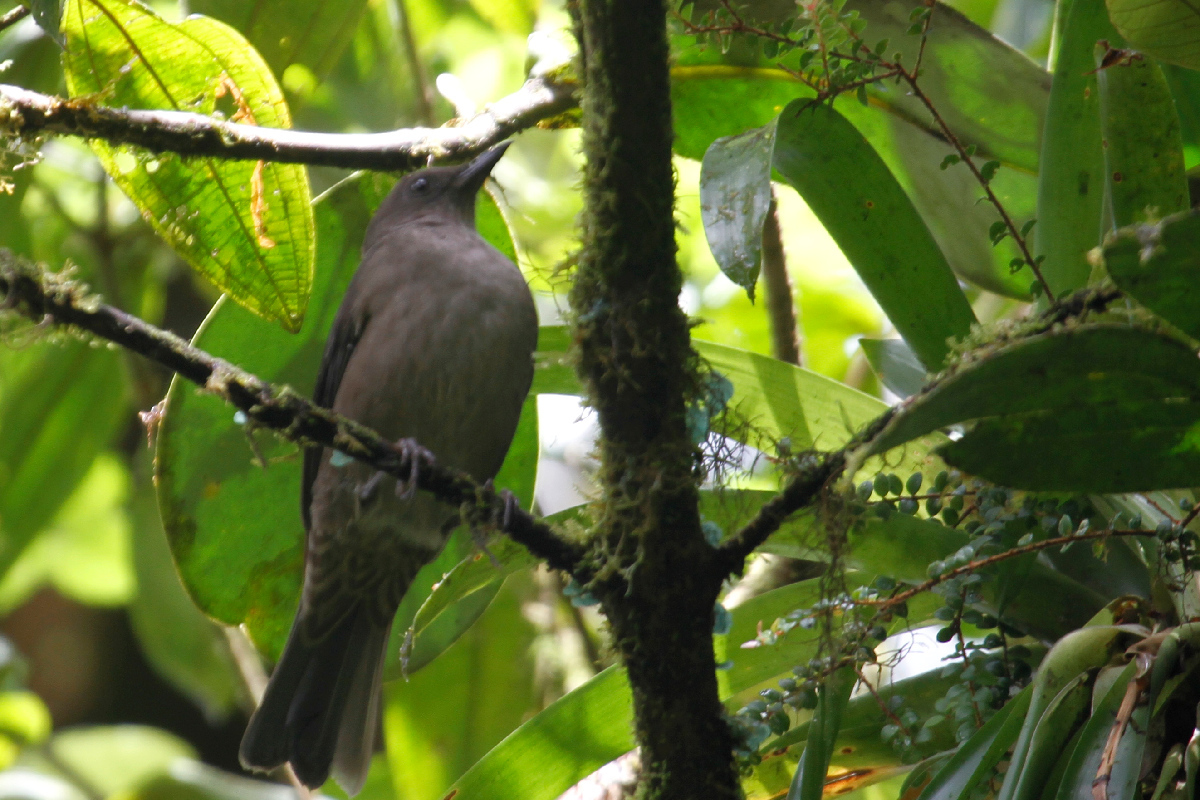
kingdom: Animalia
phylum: Chordata
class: Aves
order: Passeriformes
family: Turdidae
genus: Turdus
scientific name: Turdus plebejus
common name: Mountain thrush
